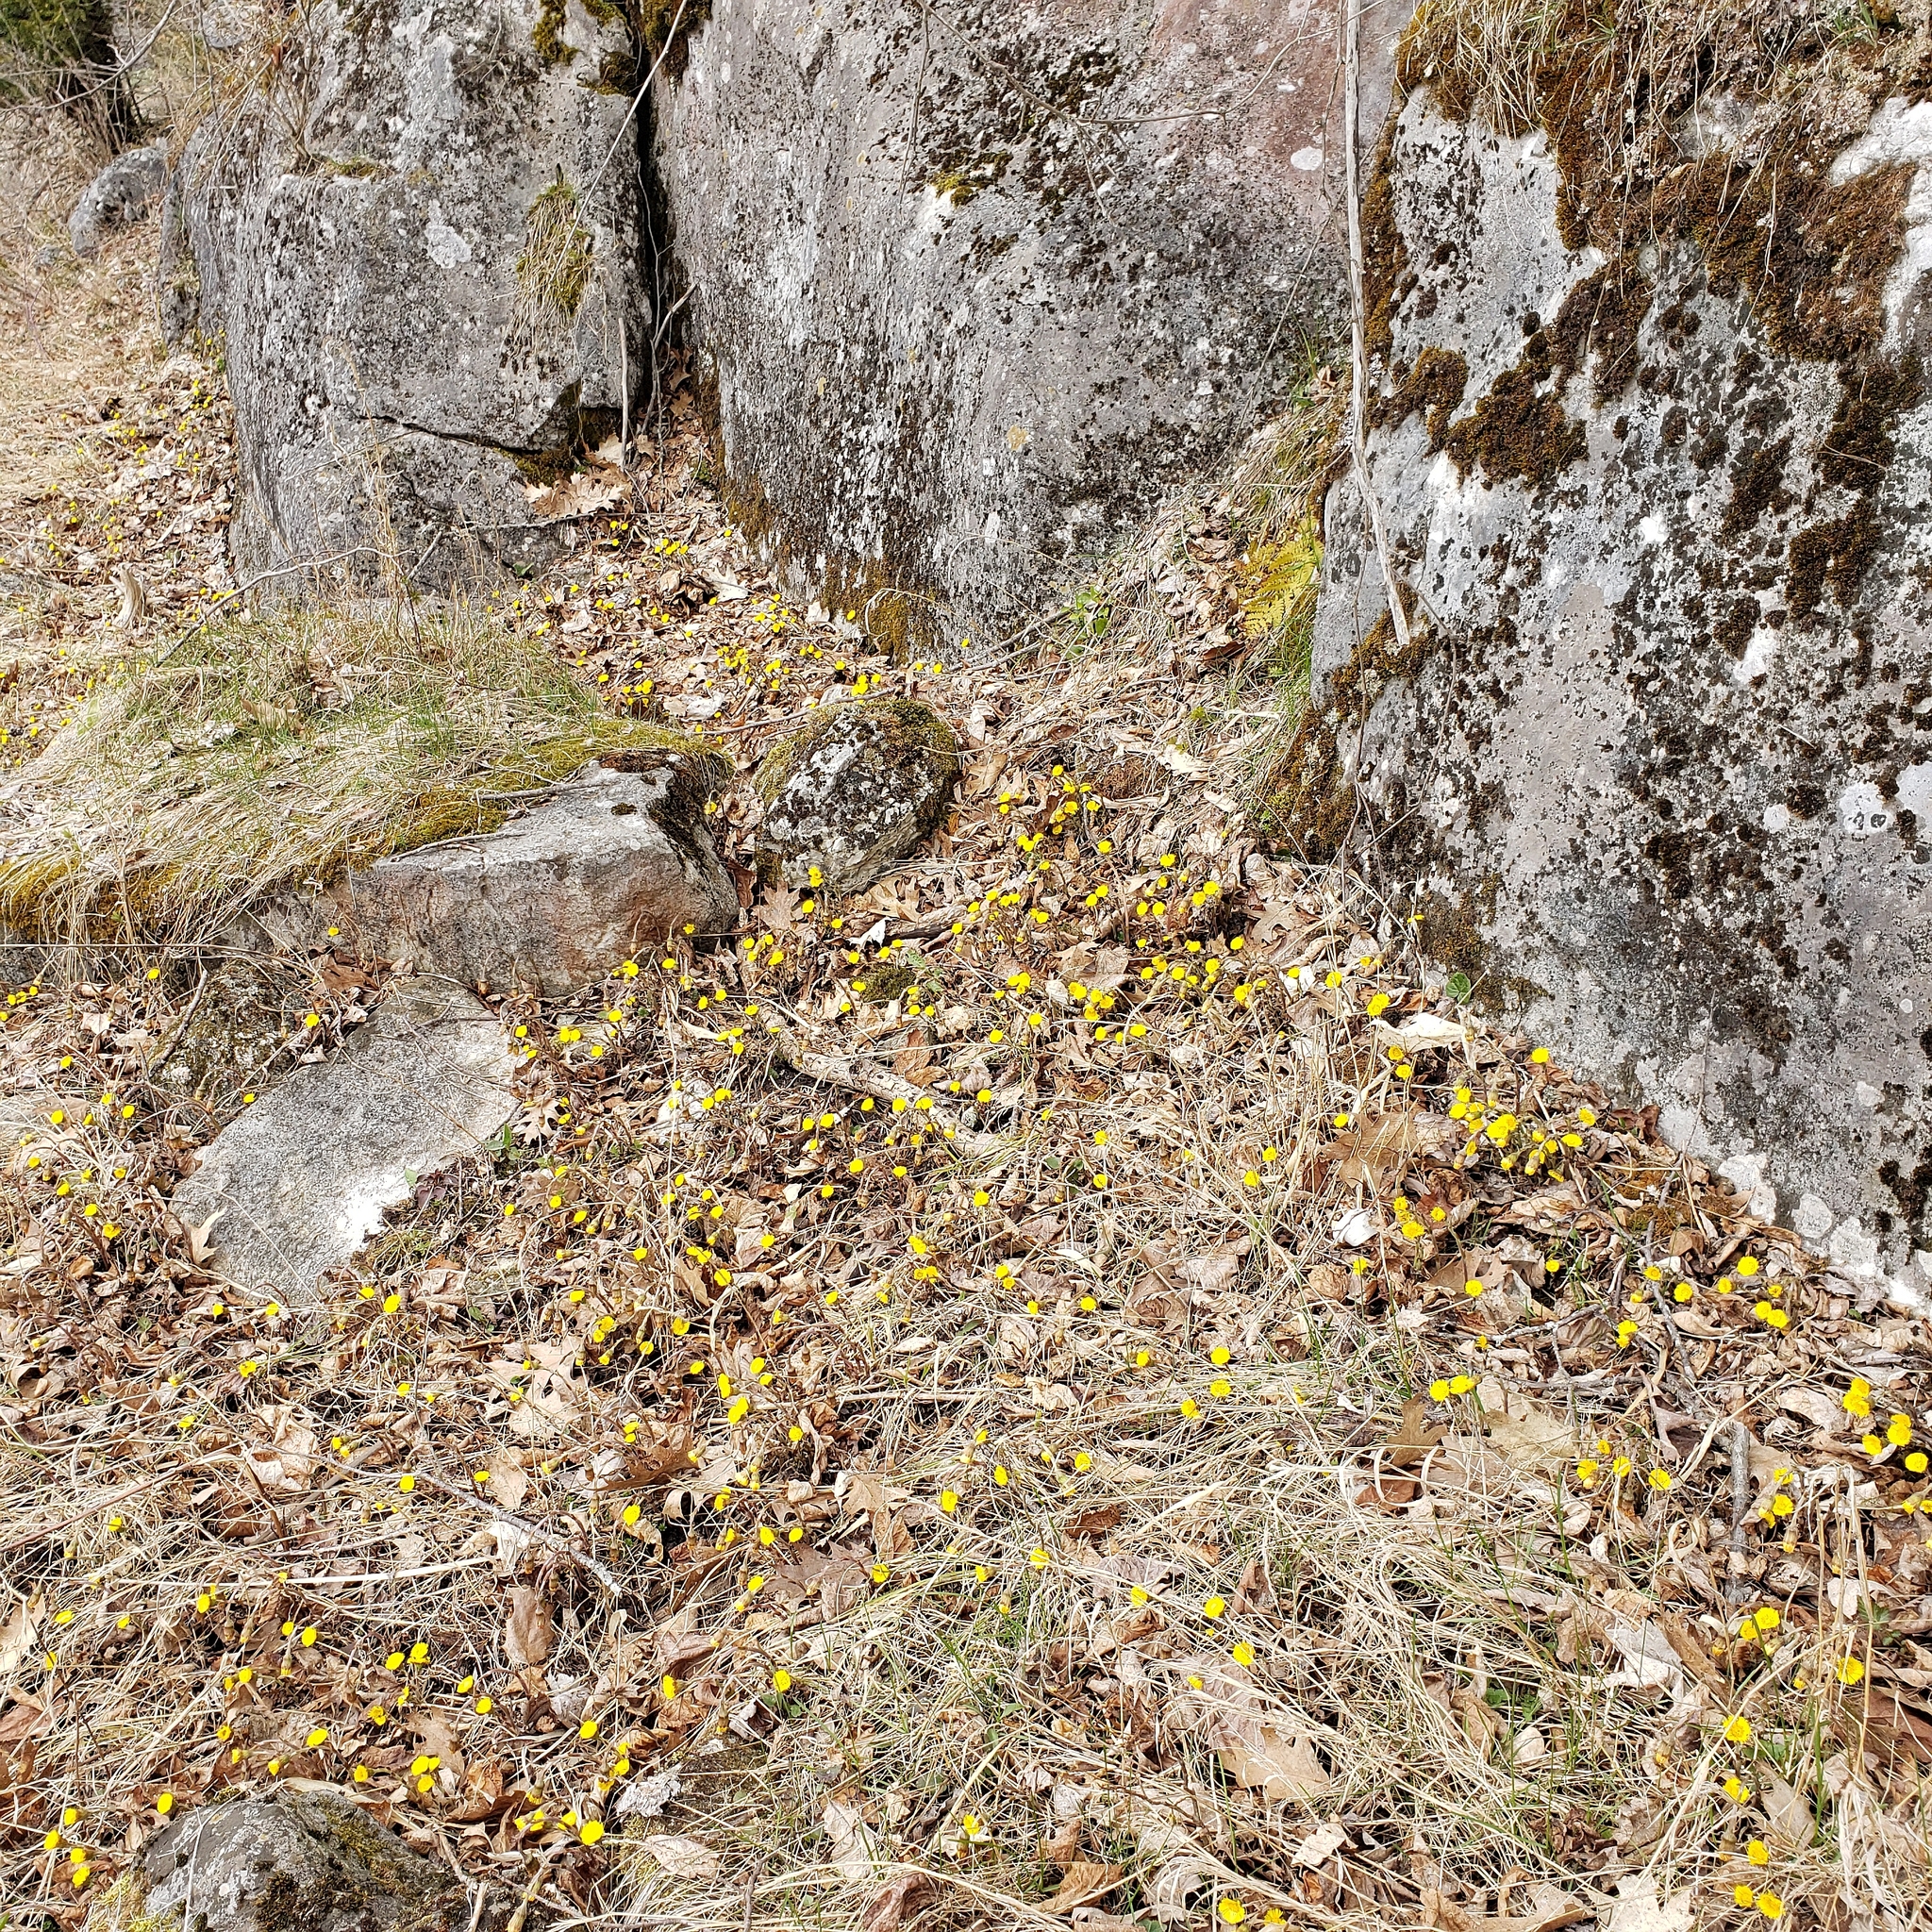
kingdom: Plantae
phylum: Tracheophyta
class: Magnoliopsida
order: Asterales
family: Asteraceae
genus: Tussilago
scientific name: Tussilago farfara
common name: Coltsfoot
